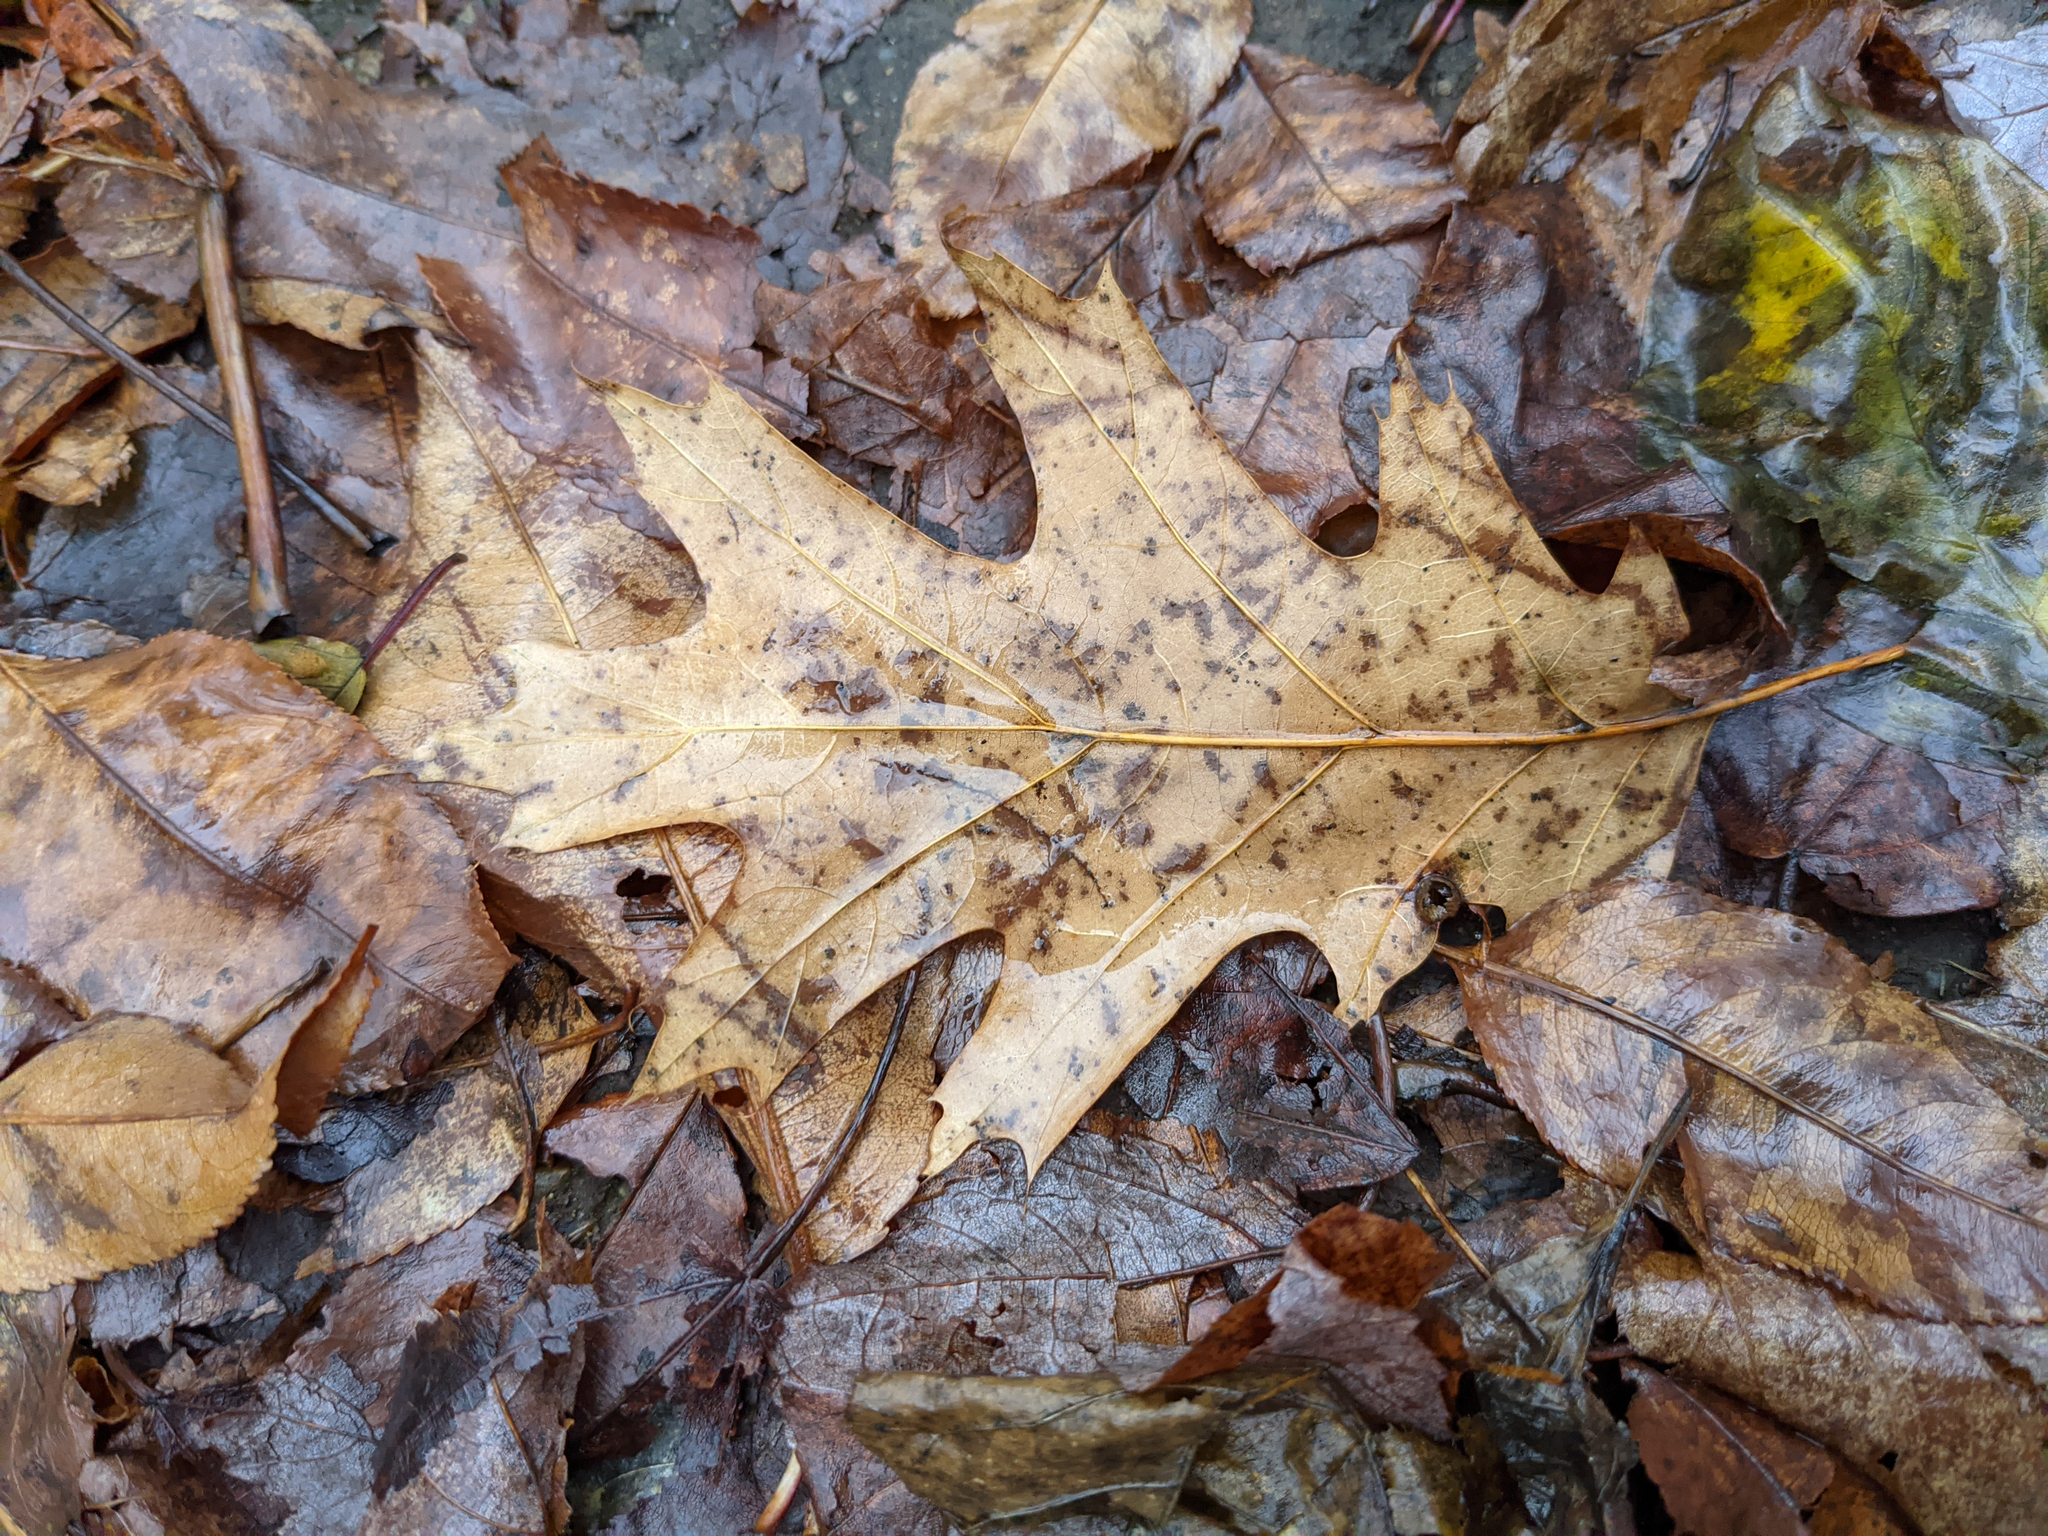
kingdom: Plantae
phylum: Tracheophyta
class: Magnoliopsida
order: Fagales
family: Fagaceae
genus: Quercus
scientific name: Quercus rubra
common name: Red oak
